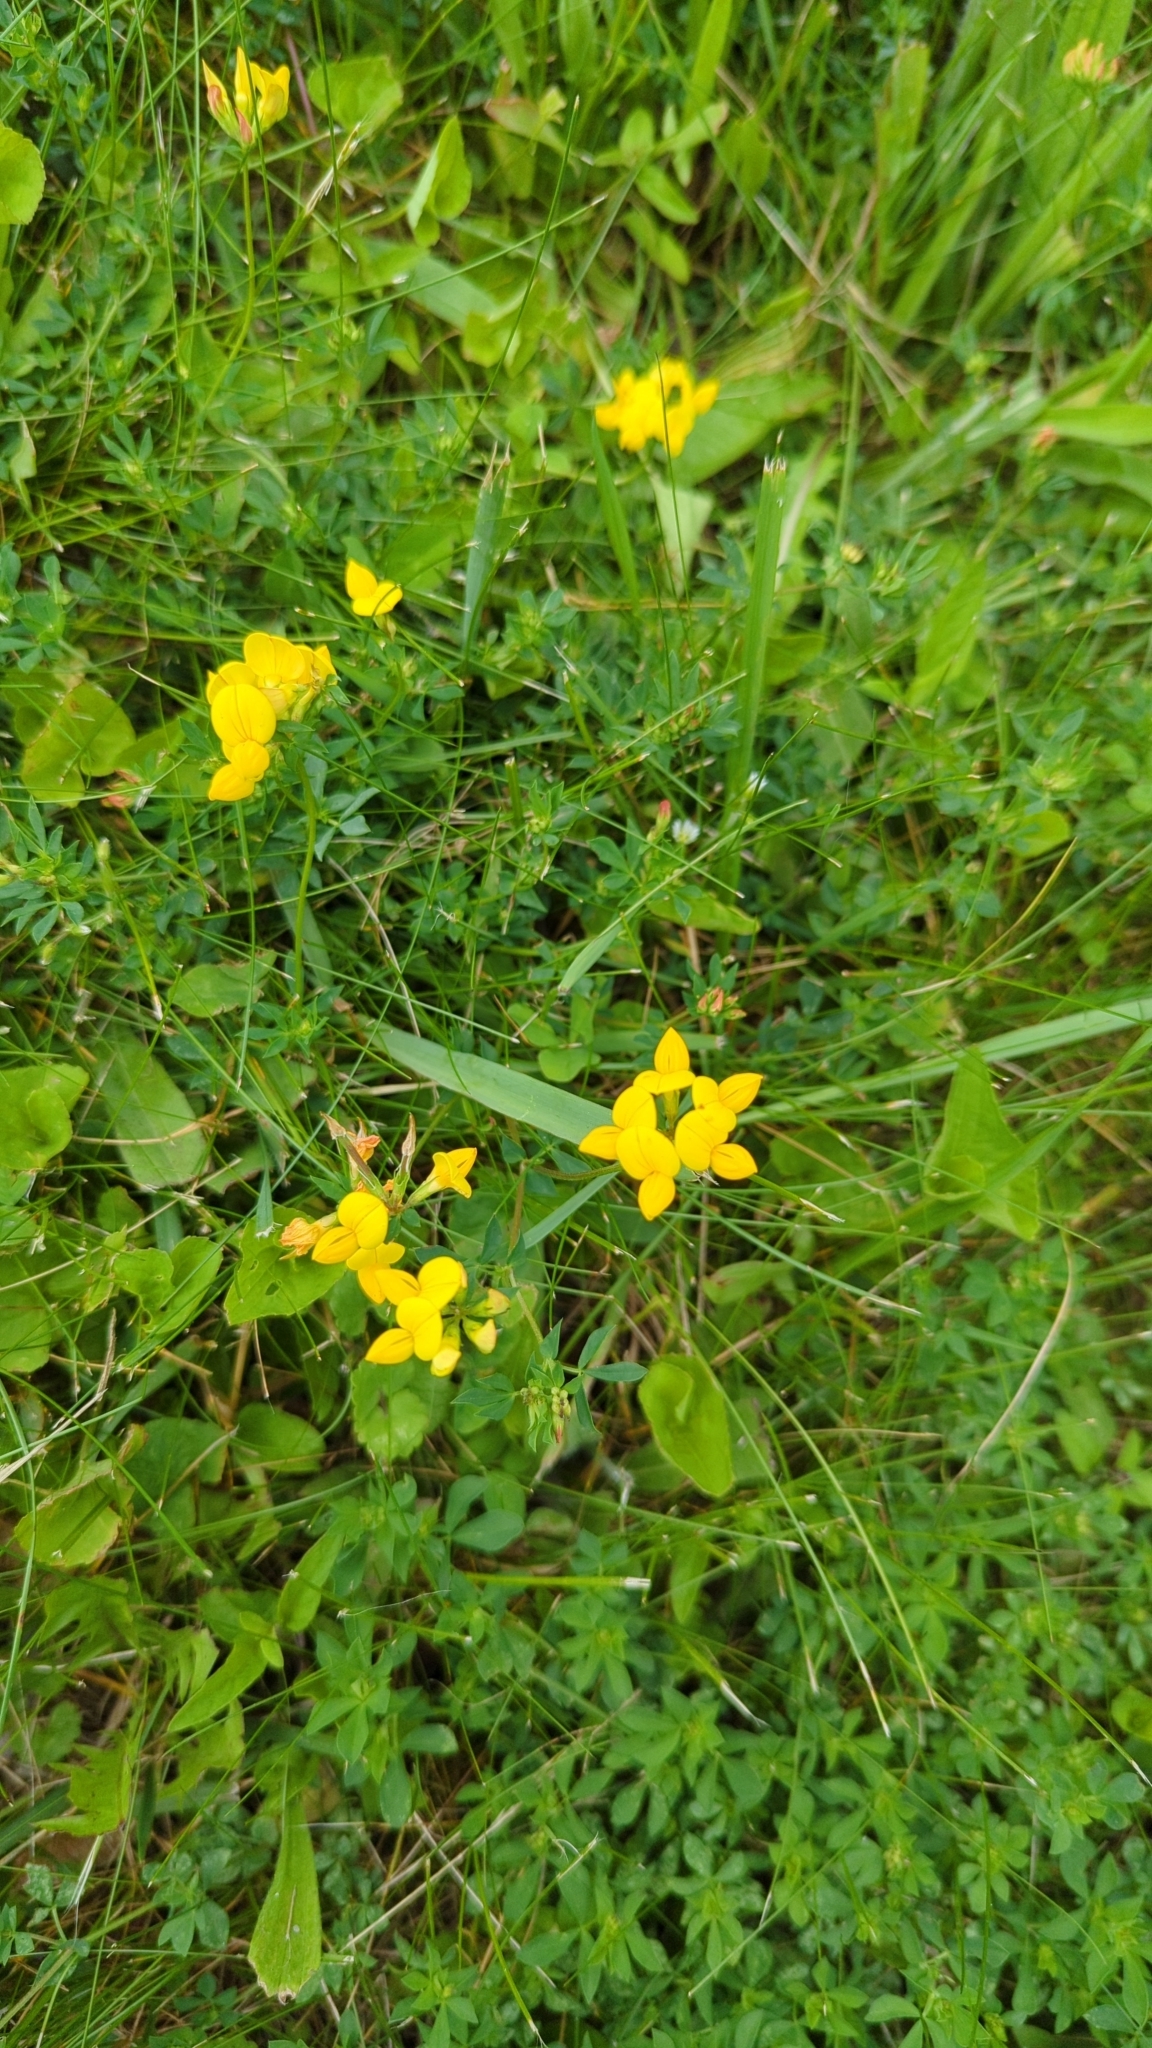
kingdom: Plantae
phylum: Tracheophyta
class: Magnoliopsida
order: Fabales
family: Fabaceae
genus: Lotus
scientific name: Lotus corniculatus
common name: Common bird's-foot-trefoil
